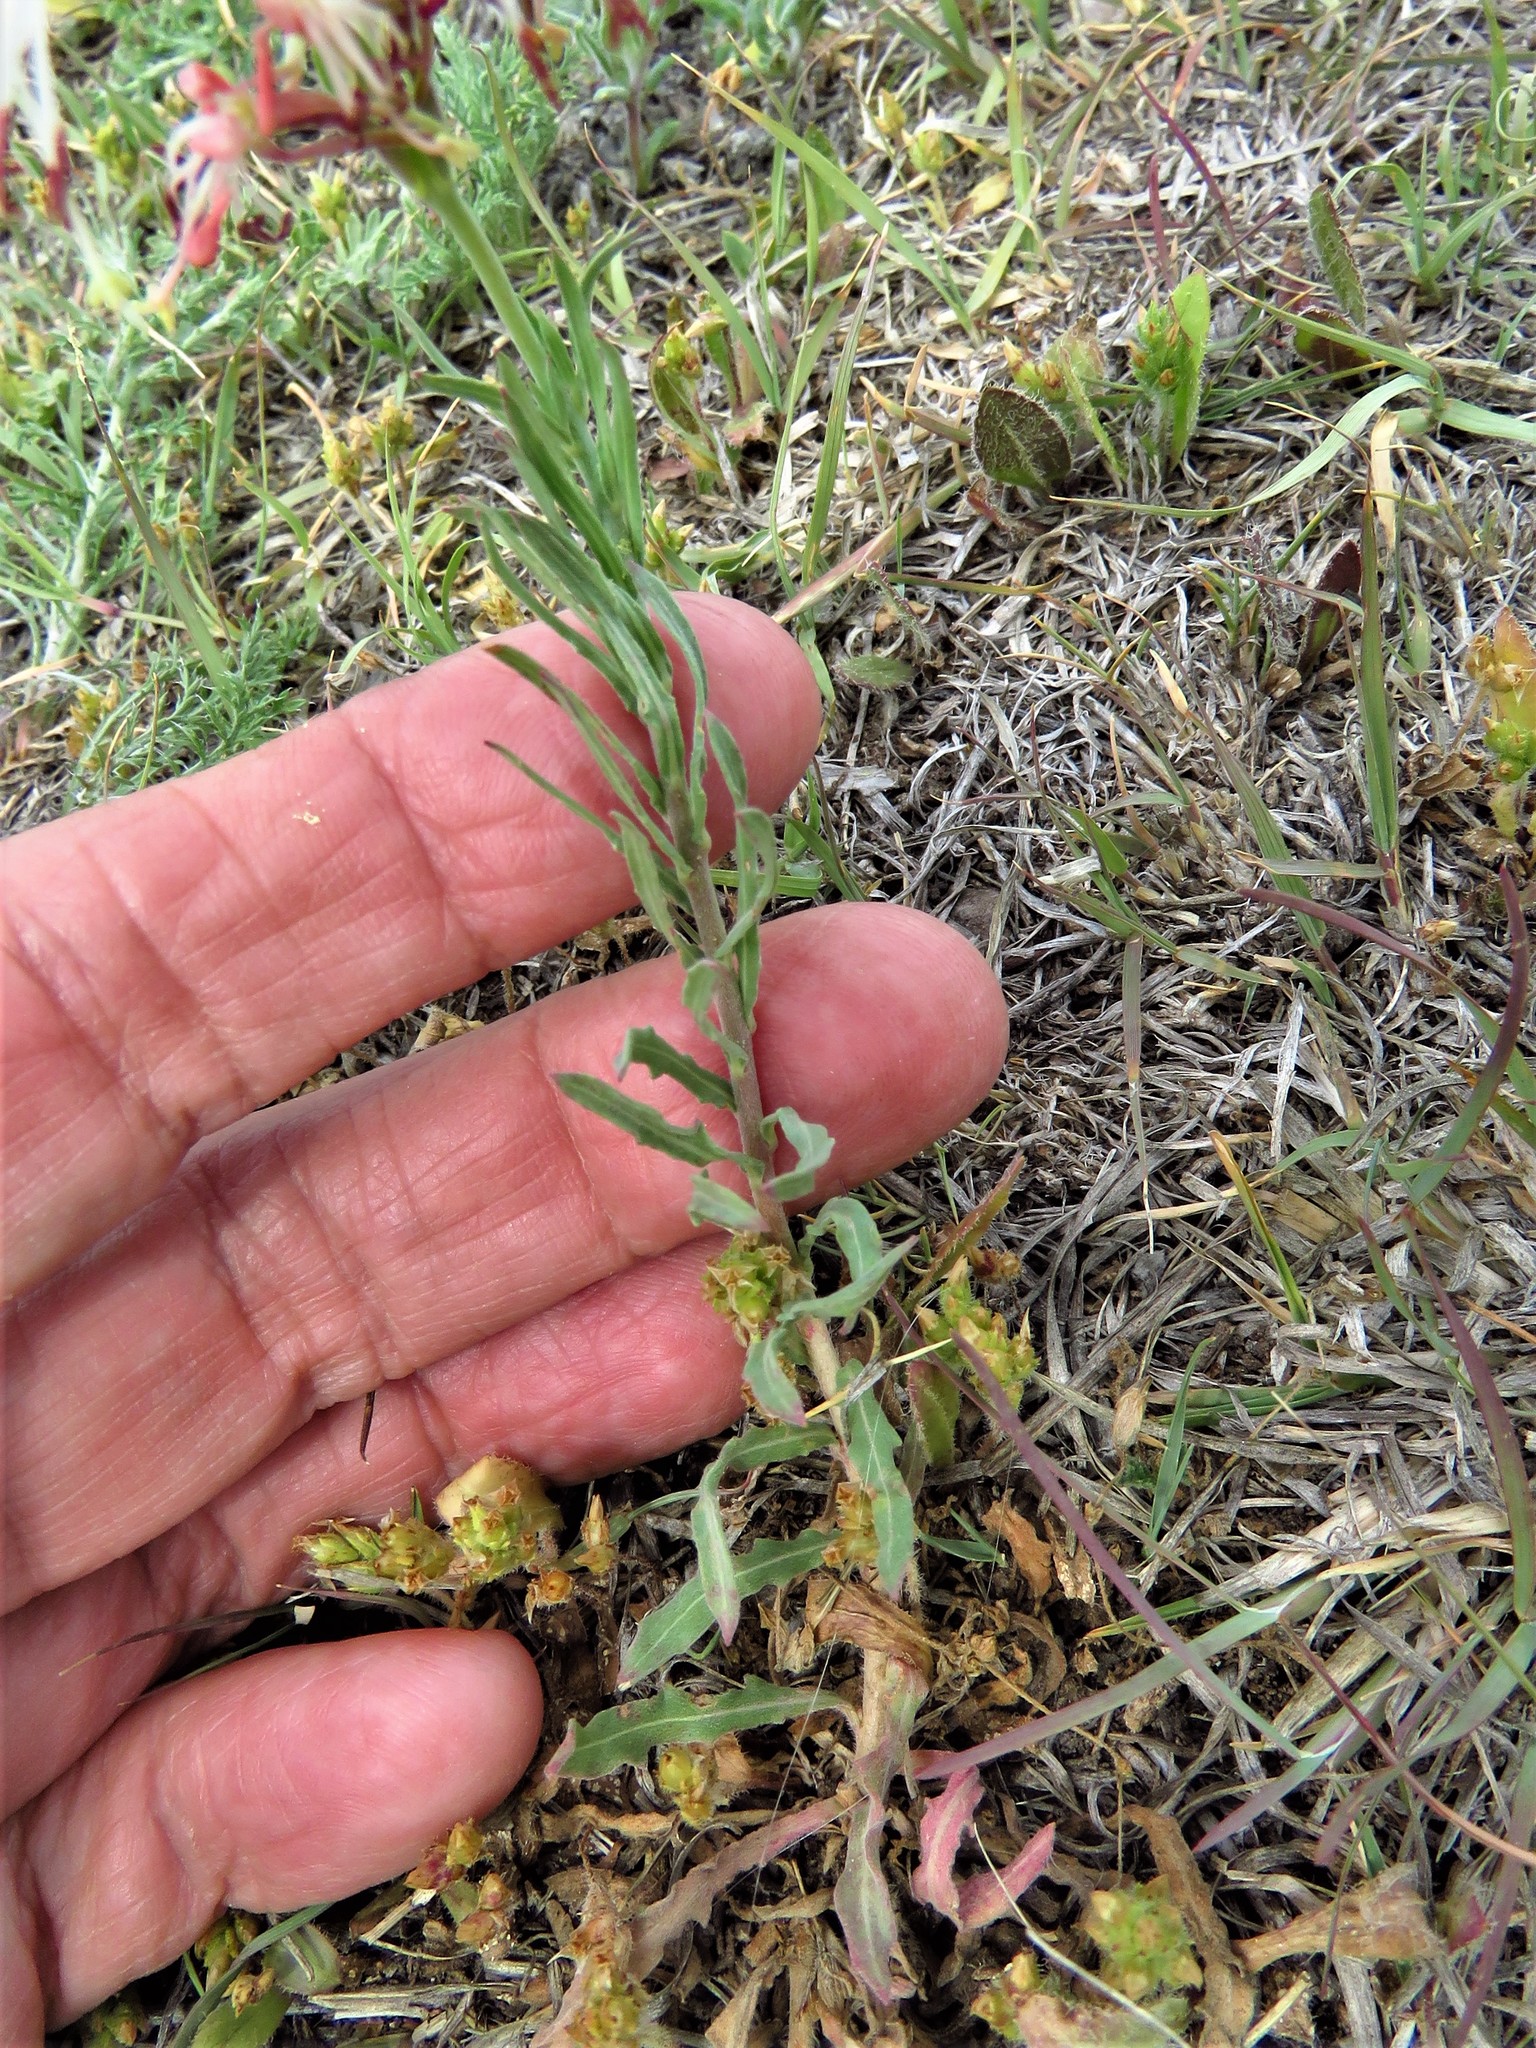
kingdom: Plantae
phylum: Tracheophyta
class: Magnoliopsida
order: Myrtales
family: Onagraceae
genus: Oenothera
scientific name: Oenothera suffrutescens
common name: Scarlet beeblossom
